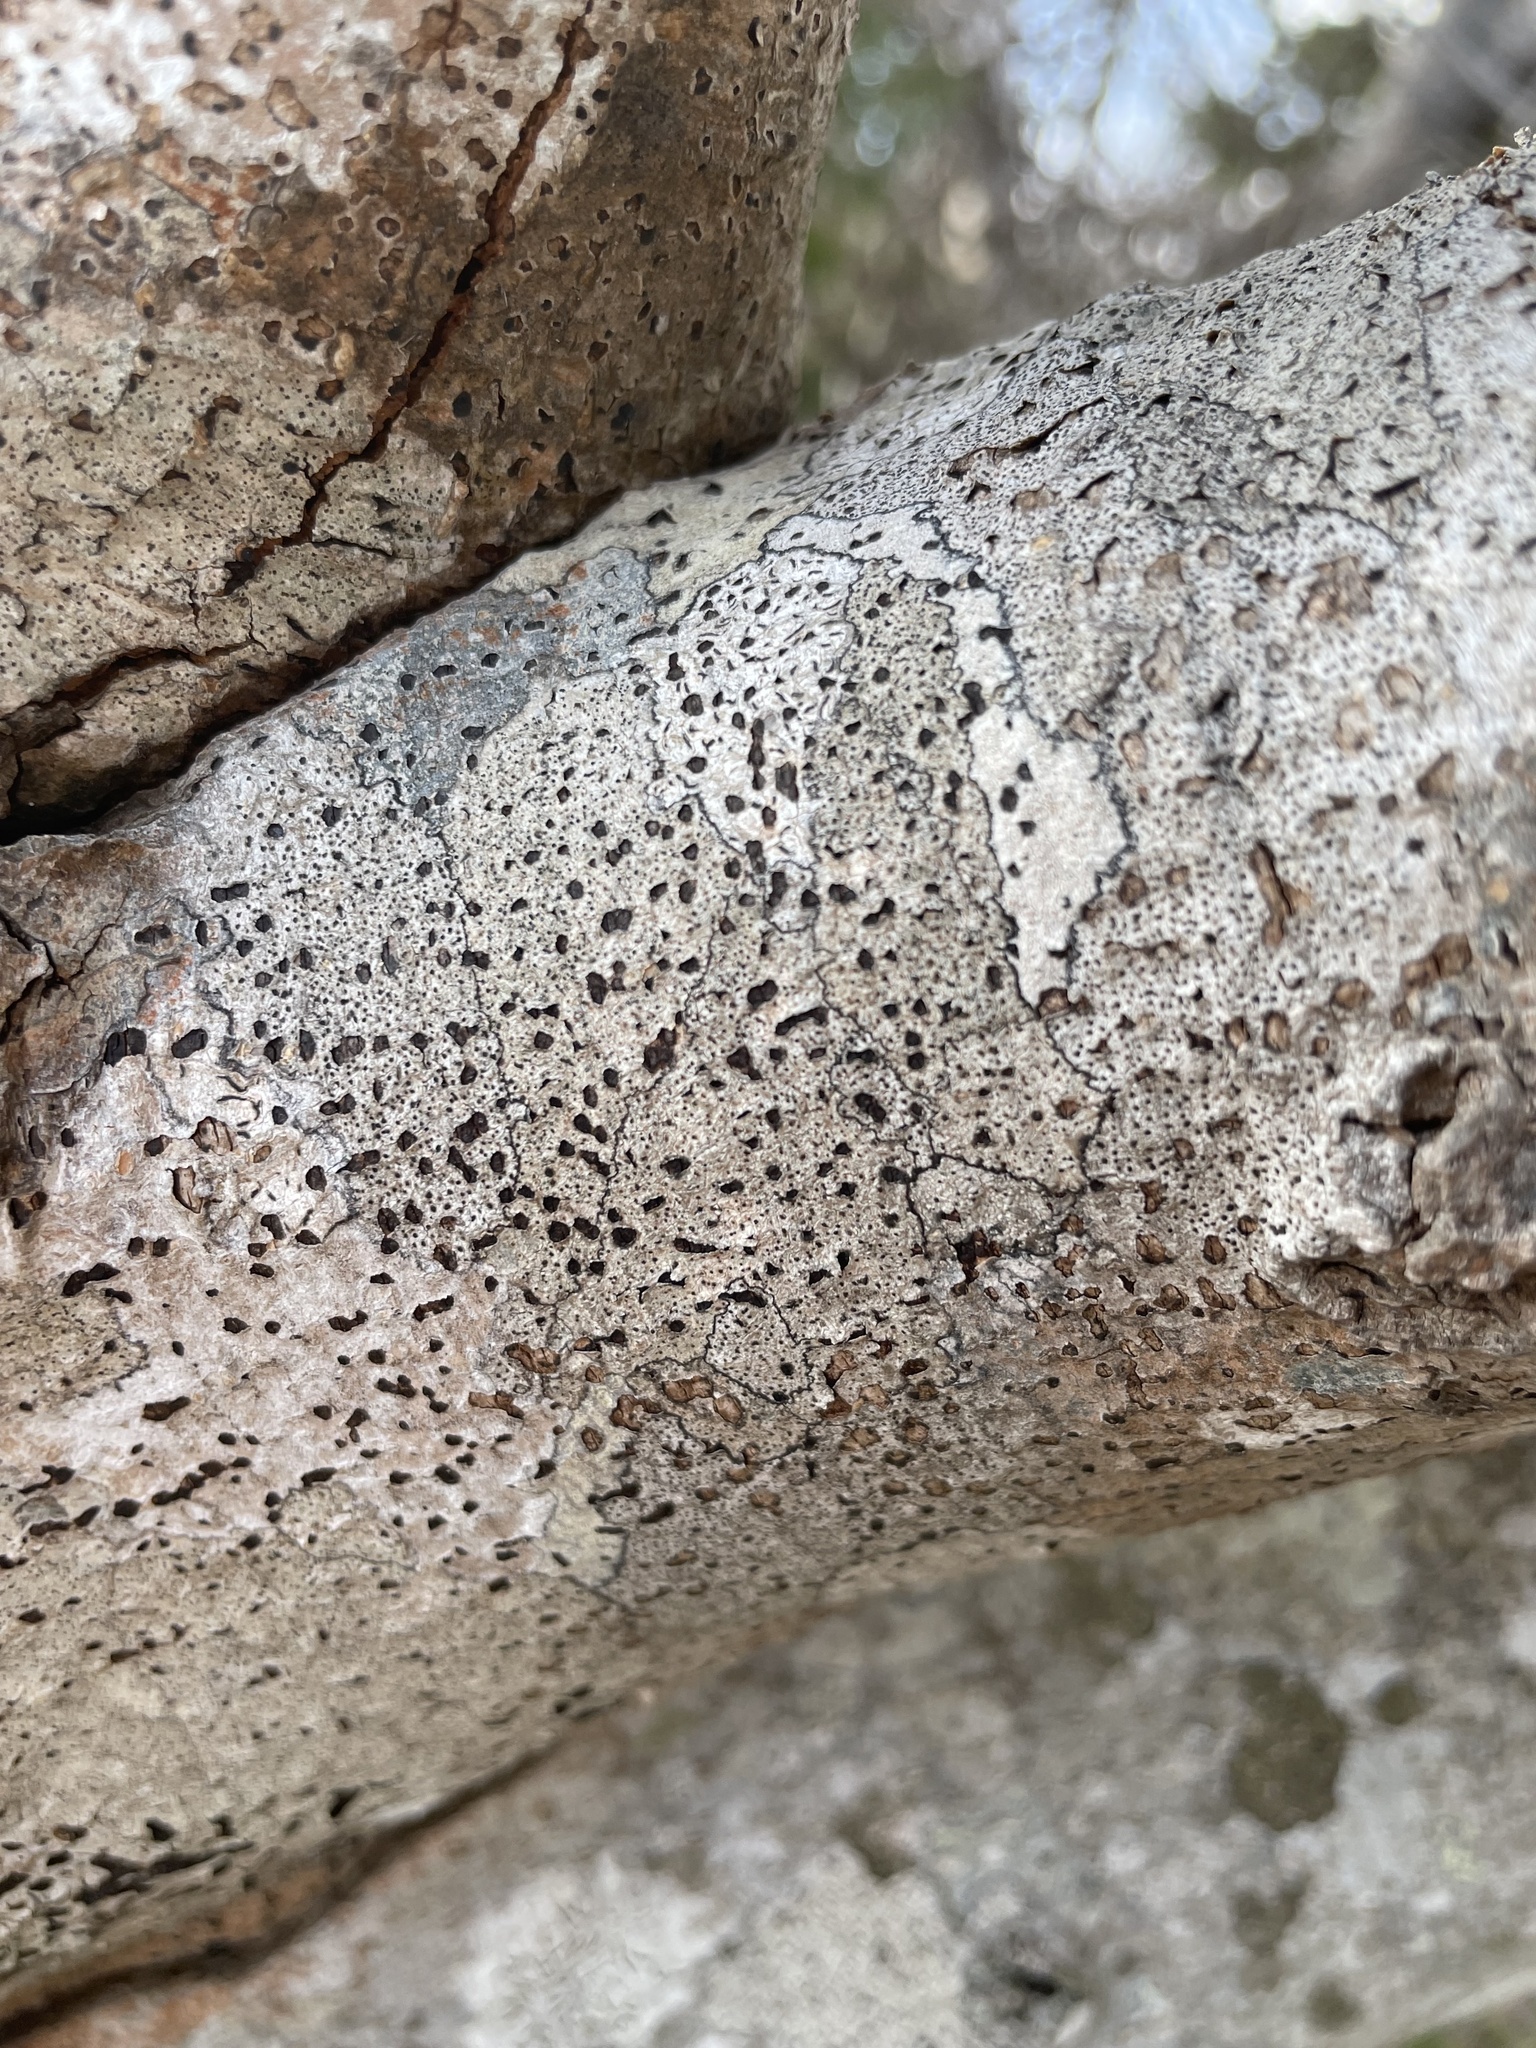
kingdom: Fungi
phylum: Ascomycota
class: Lecanoromycetes
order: Caliciales
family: Caliciaceae
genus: Buellia
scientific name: Buellia erubescens
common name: Common button lichen
